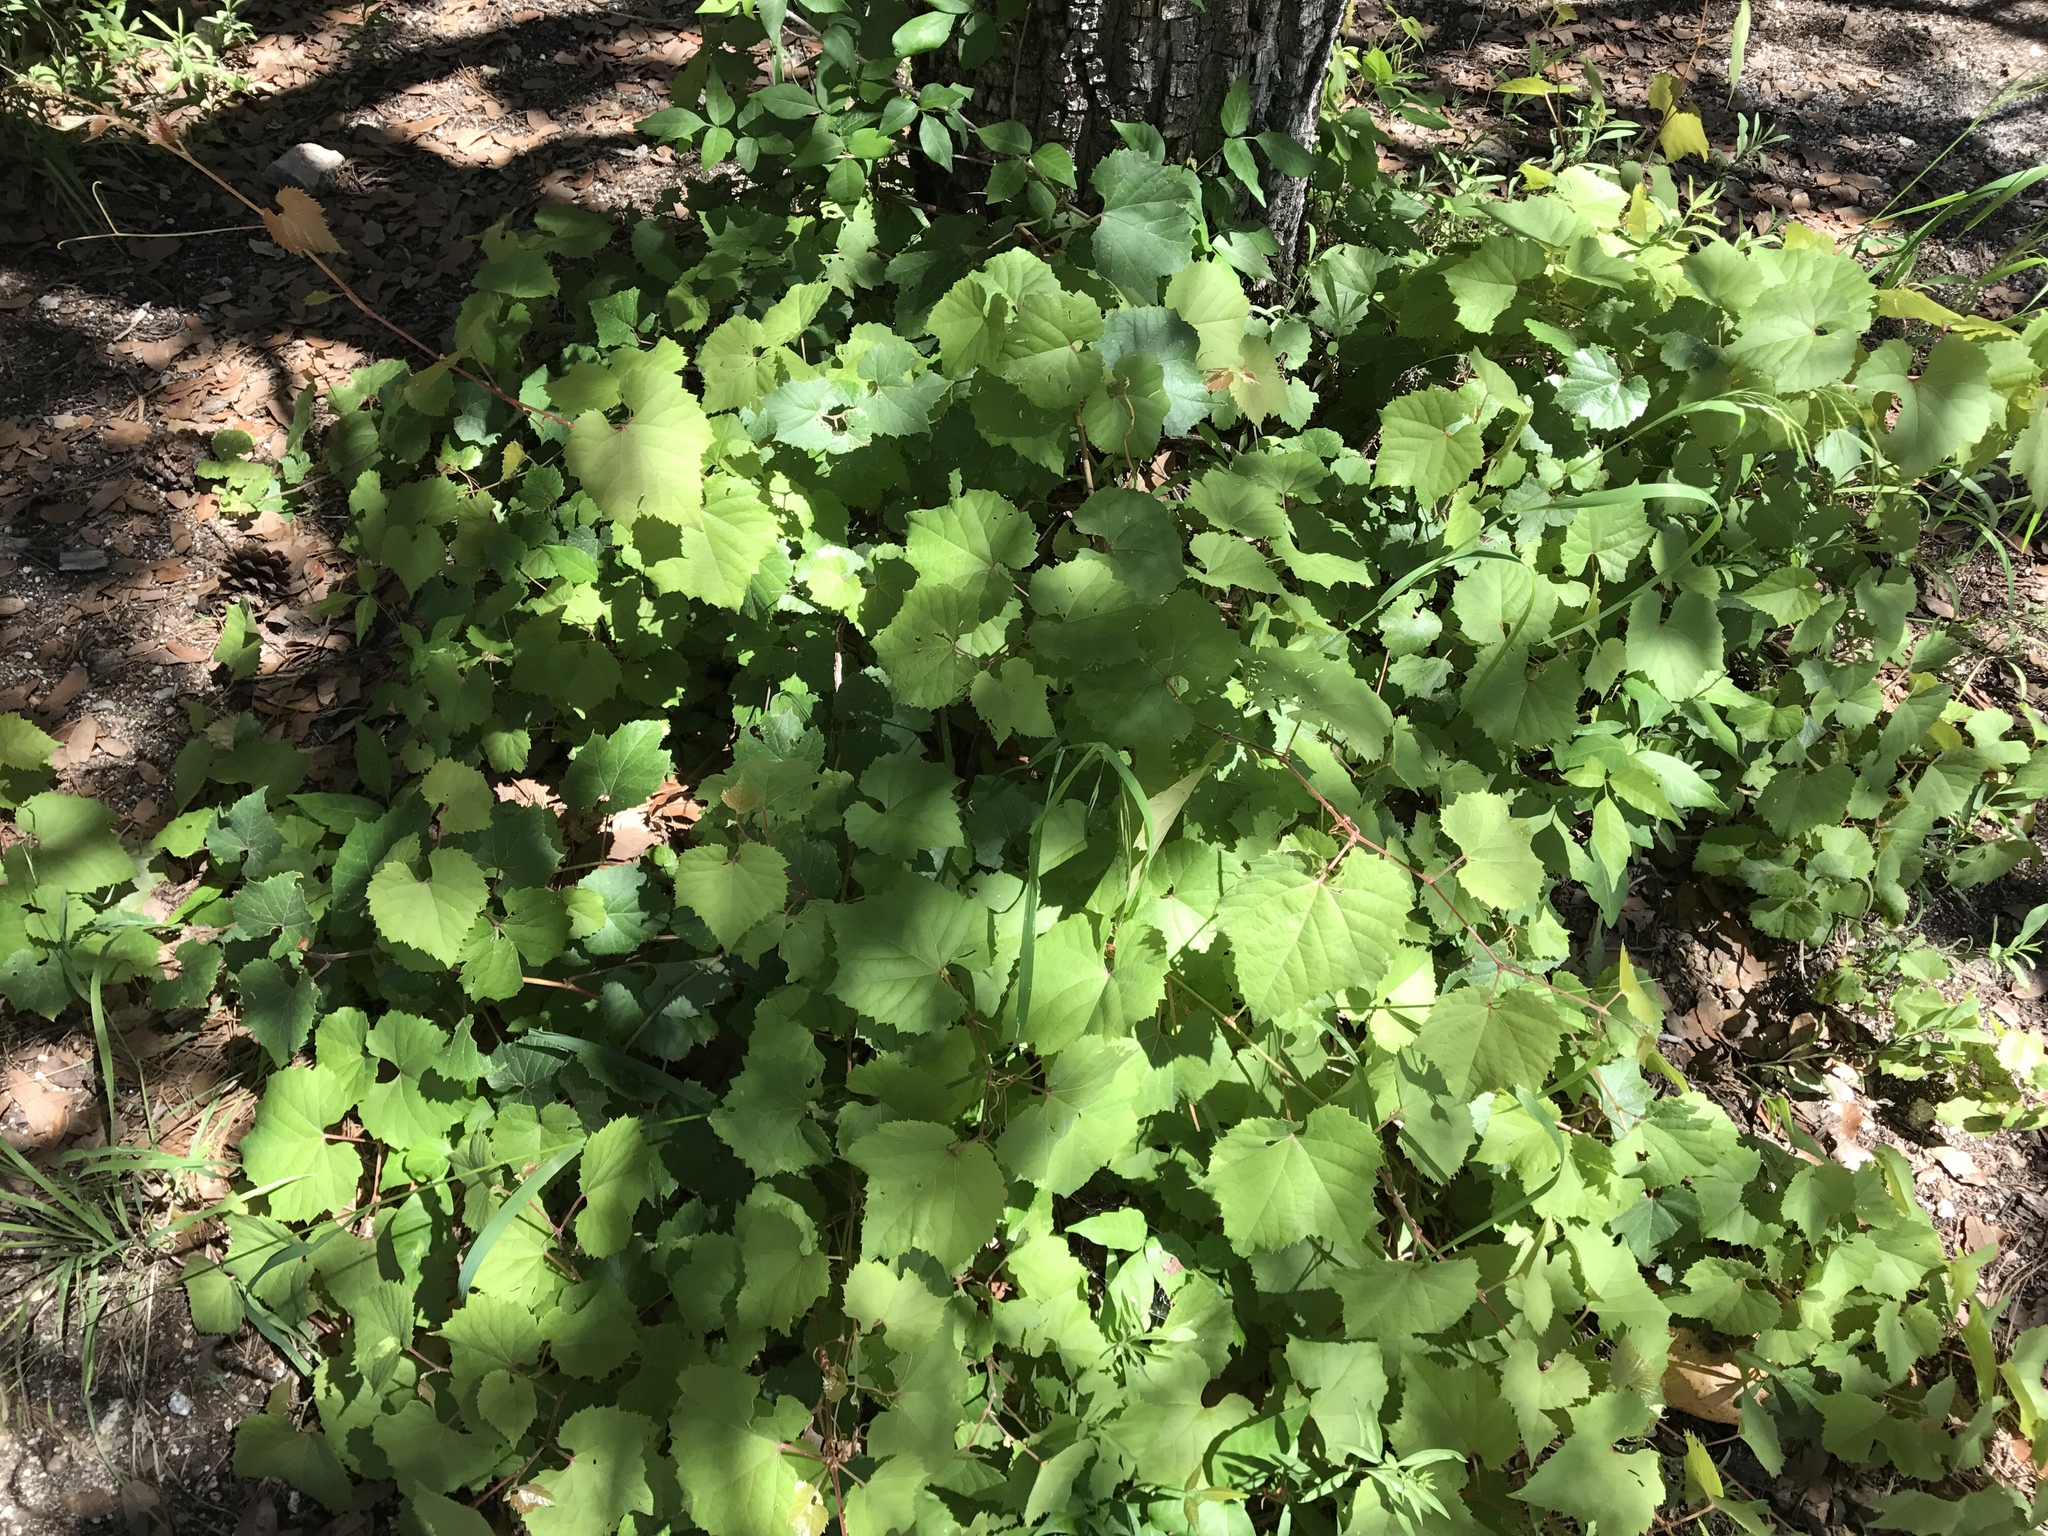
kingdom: Plantae
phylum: Tracheophyta
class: Magnoliopsida
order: Vitales
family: Vitaceae
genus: Vitis
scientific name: Vitis arizonica
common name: Canyon grape
